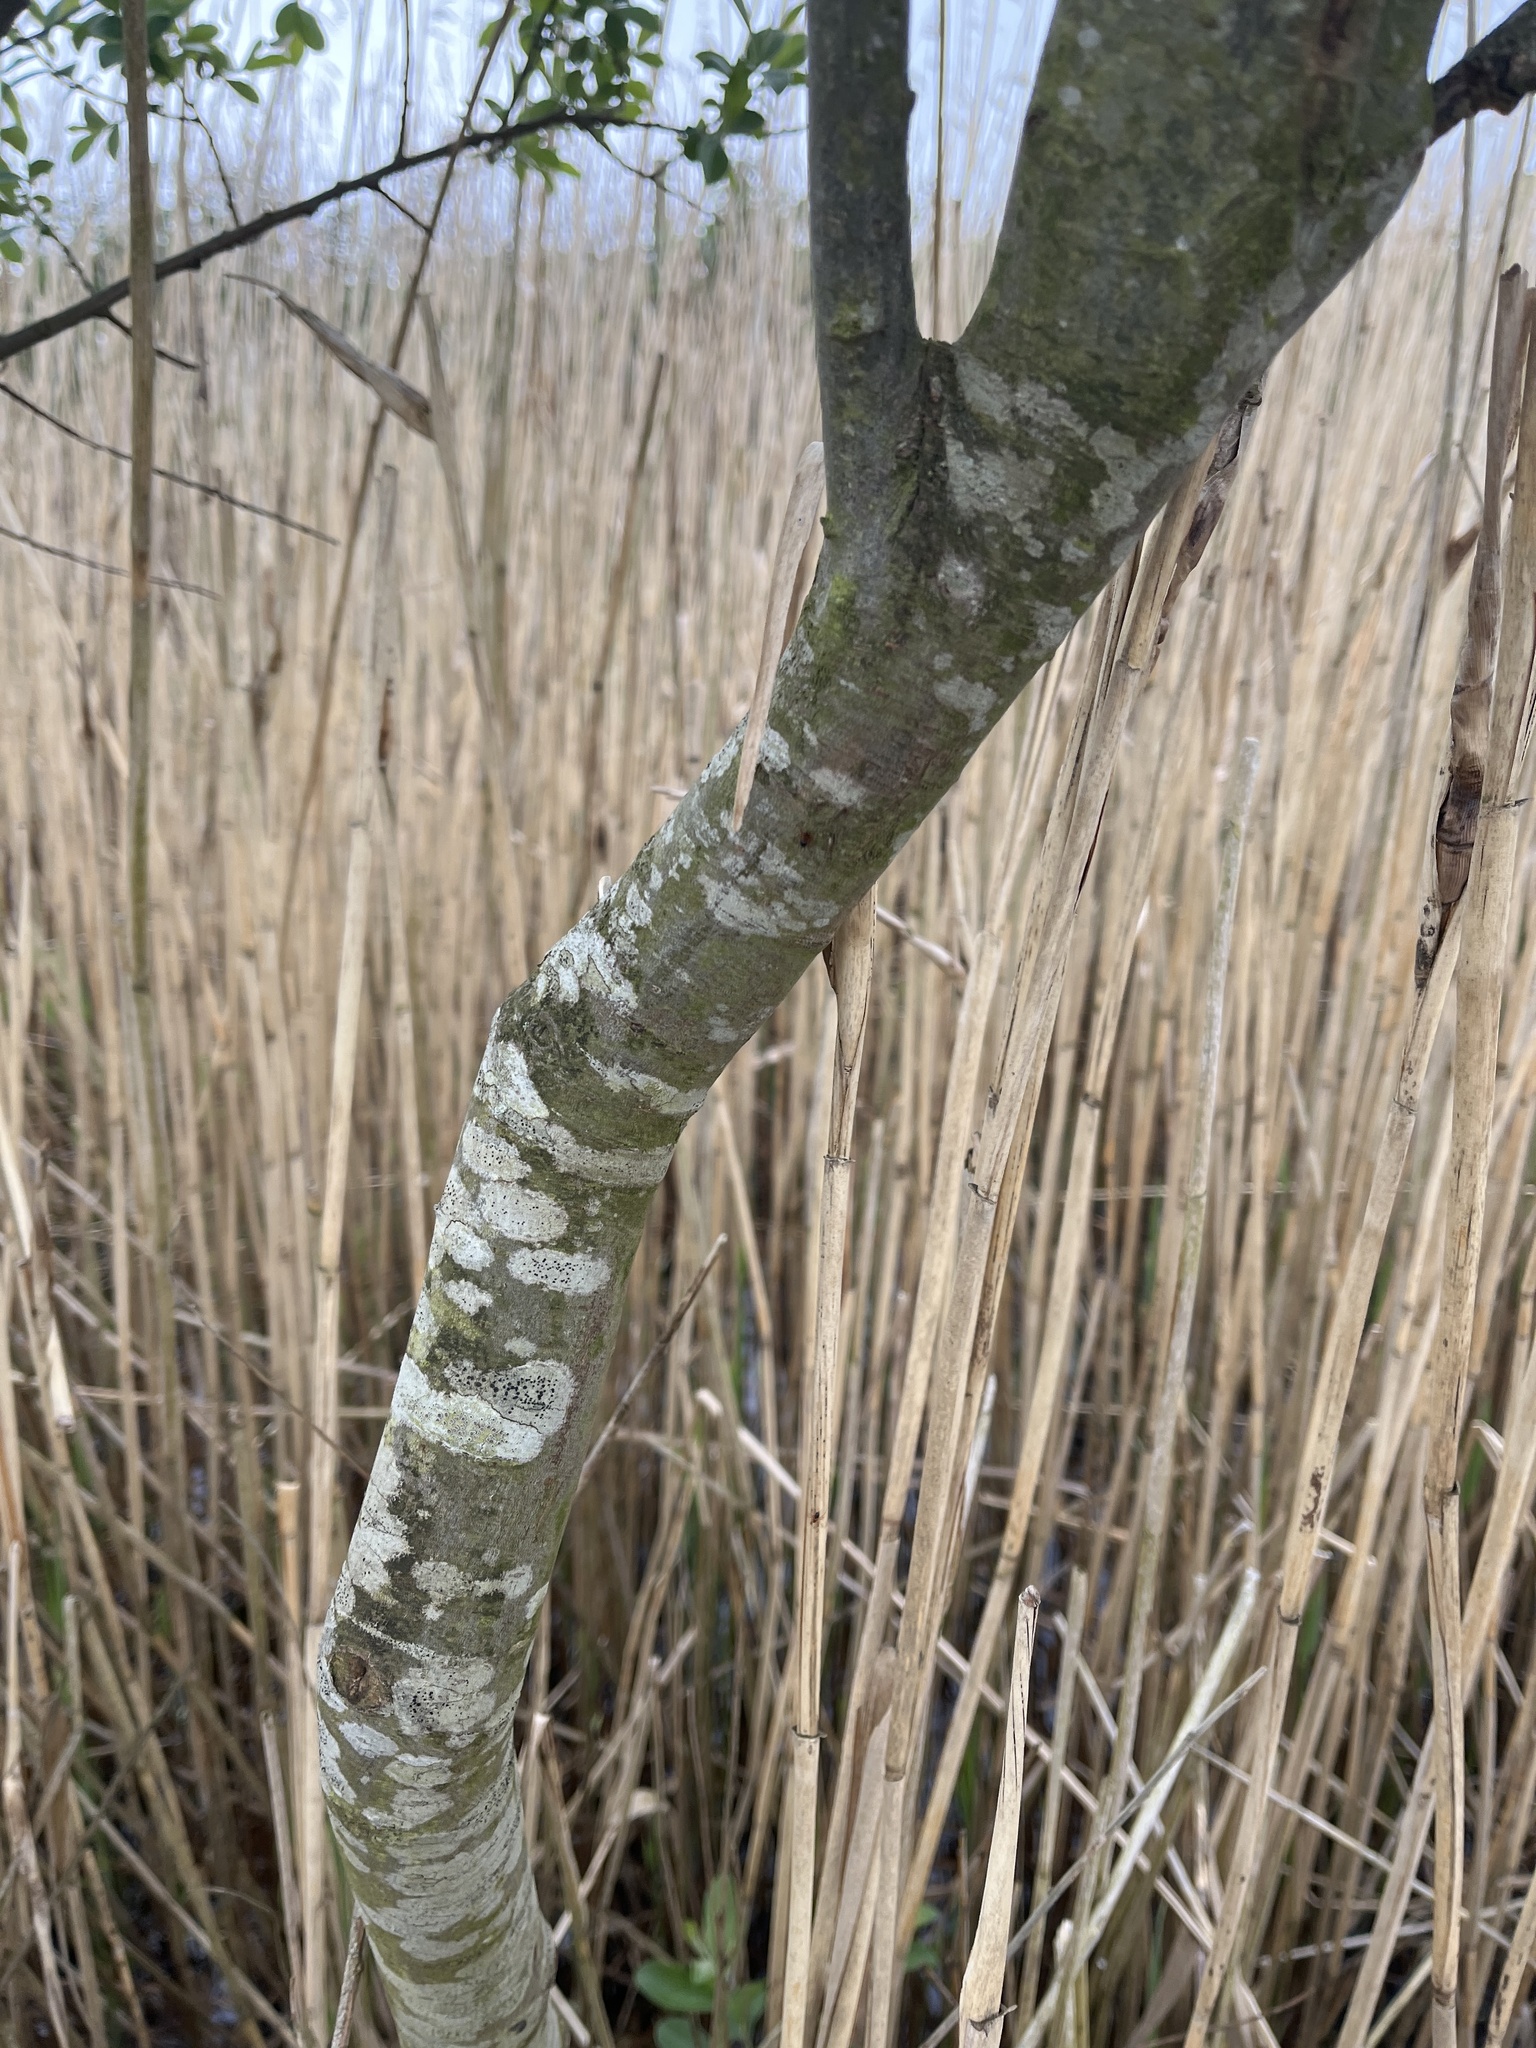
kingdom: Plantae
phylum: Tracheophyta
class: Magnoliopsida
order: Malpighiales
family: Salicaceae
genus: Salix
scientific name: Salix atrocinerea
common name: Rusty willow
